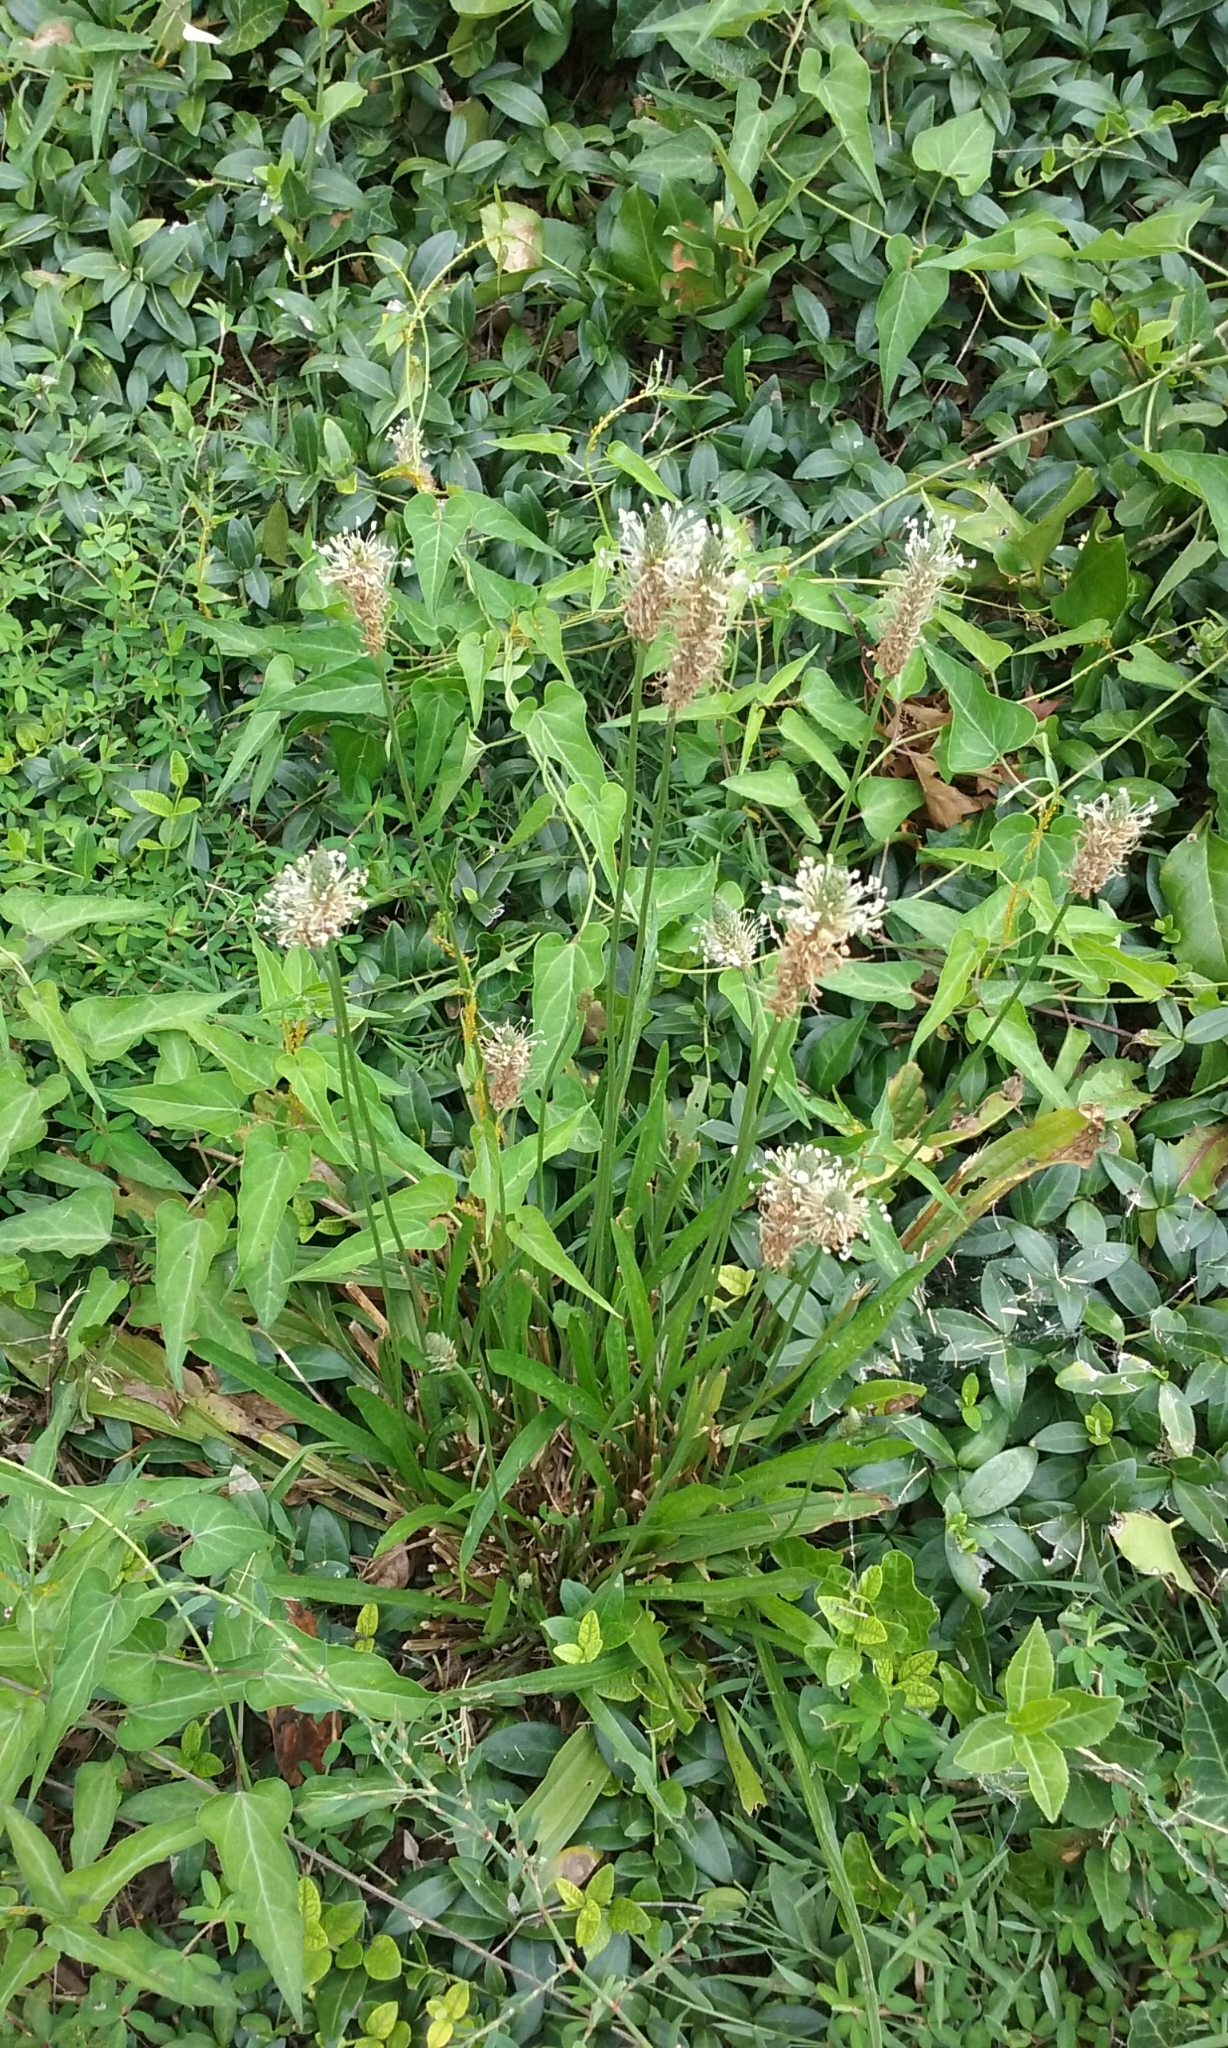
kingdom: Plantae
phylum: Tracheophyta
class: Magnoliopsida
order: Lamiales
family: Plantaginaceae
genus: Plantago
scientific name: Plantago lanceolata
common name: Ribwort plantain
